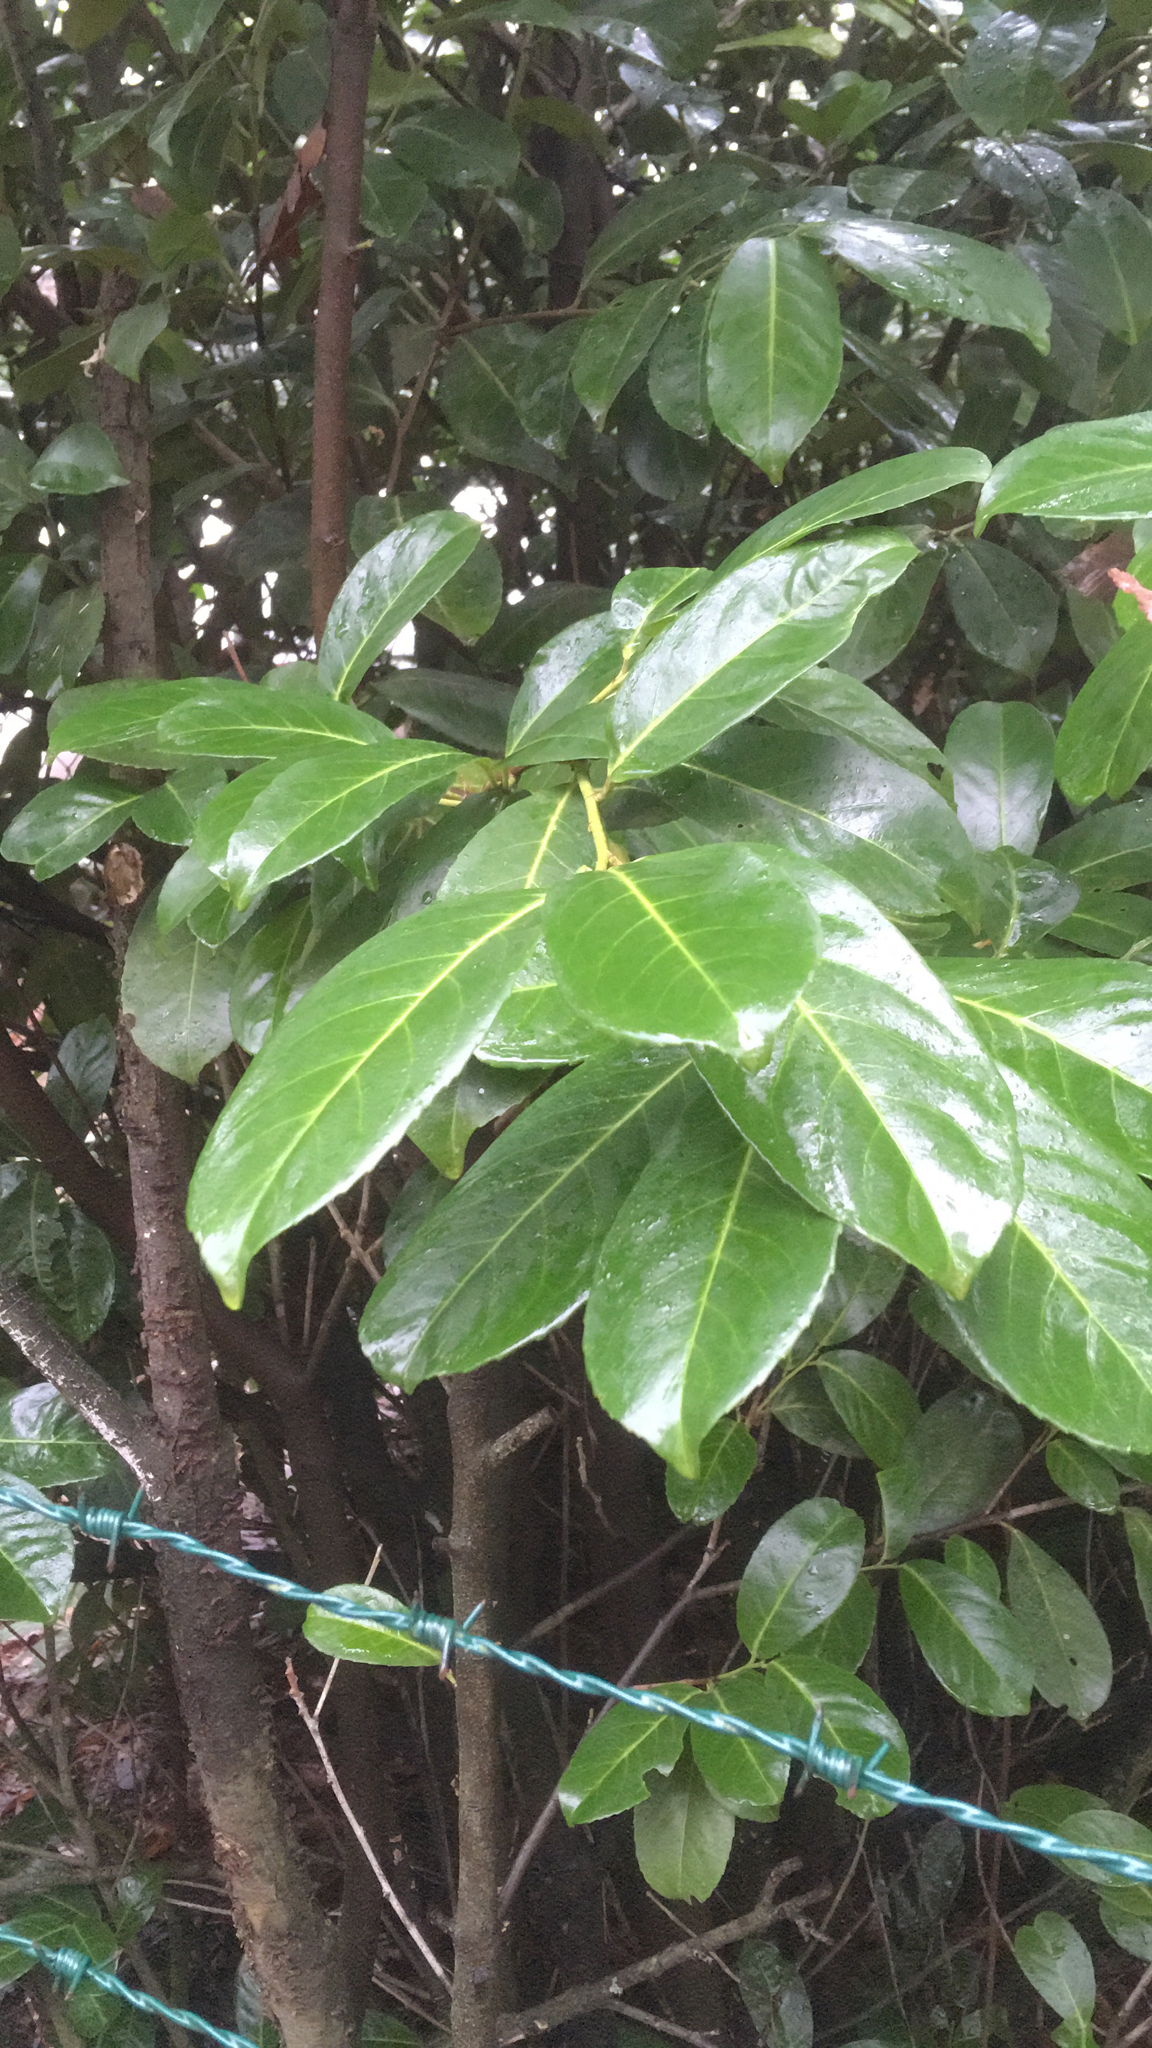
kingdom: Plantae
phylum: Tracheophyta
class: Magnoliopsida
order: Rosales
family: Rosaceae
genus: Prunus
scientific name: Prunus laurocerasus
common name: Cherry laurel
